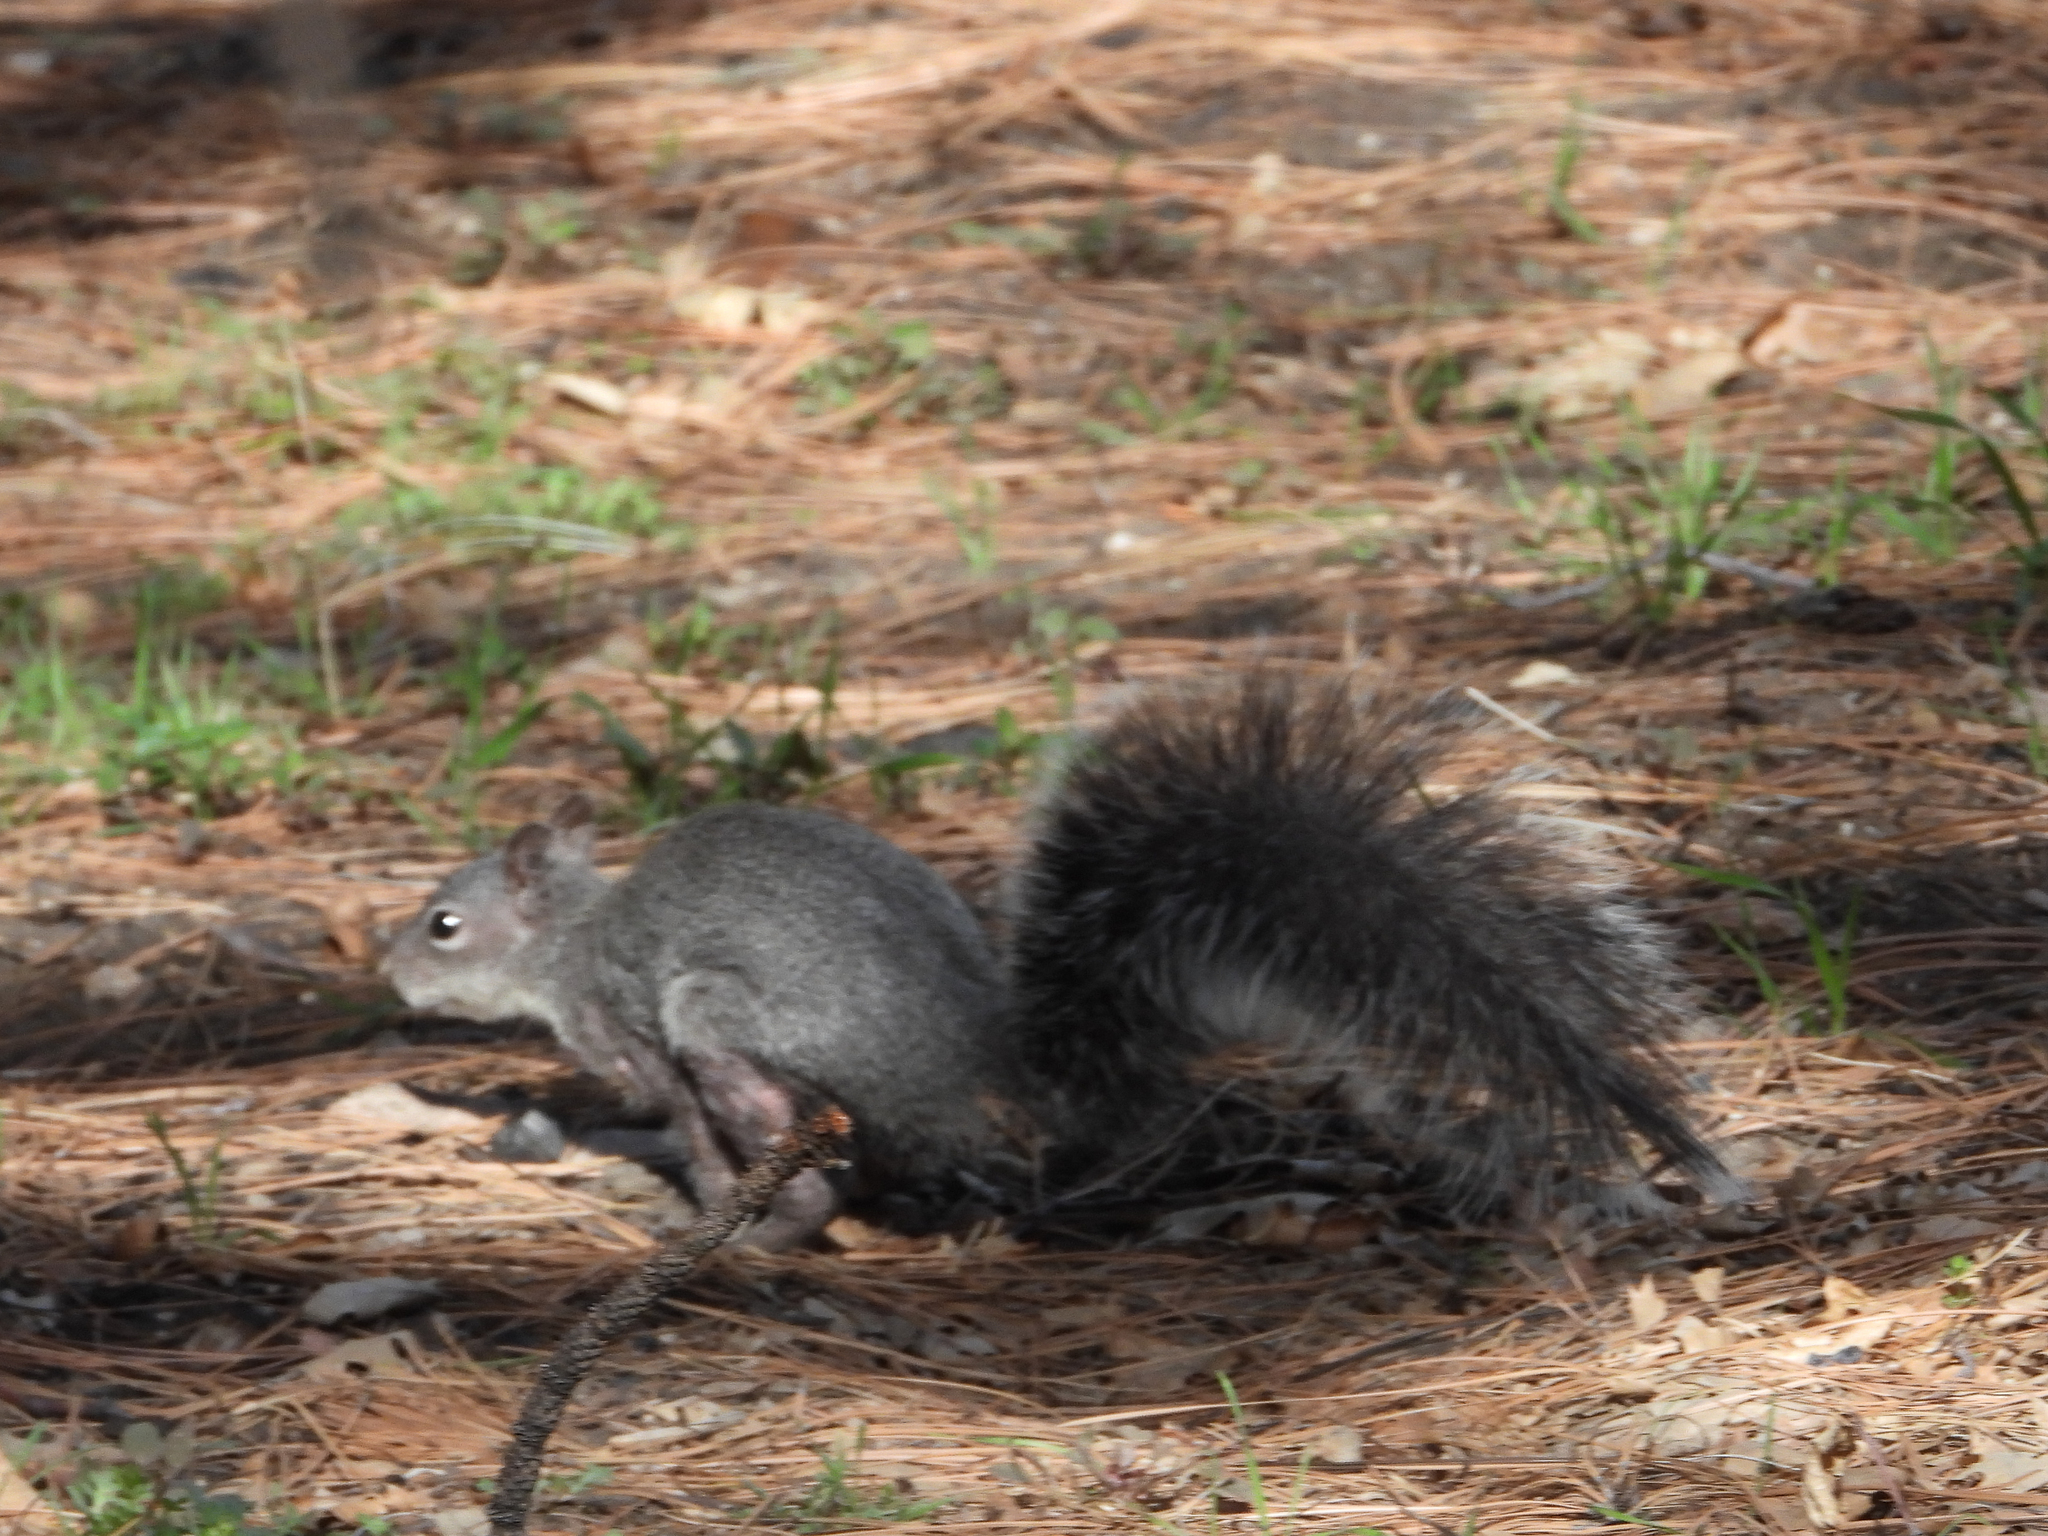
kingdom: Animalia
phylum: Chordata
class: Mammalia
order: Rodentia
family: Sciuridae
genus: Sciurus
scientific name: Sciurus griseus
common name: Western gray squirrel
